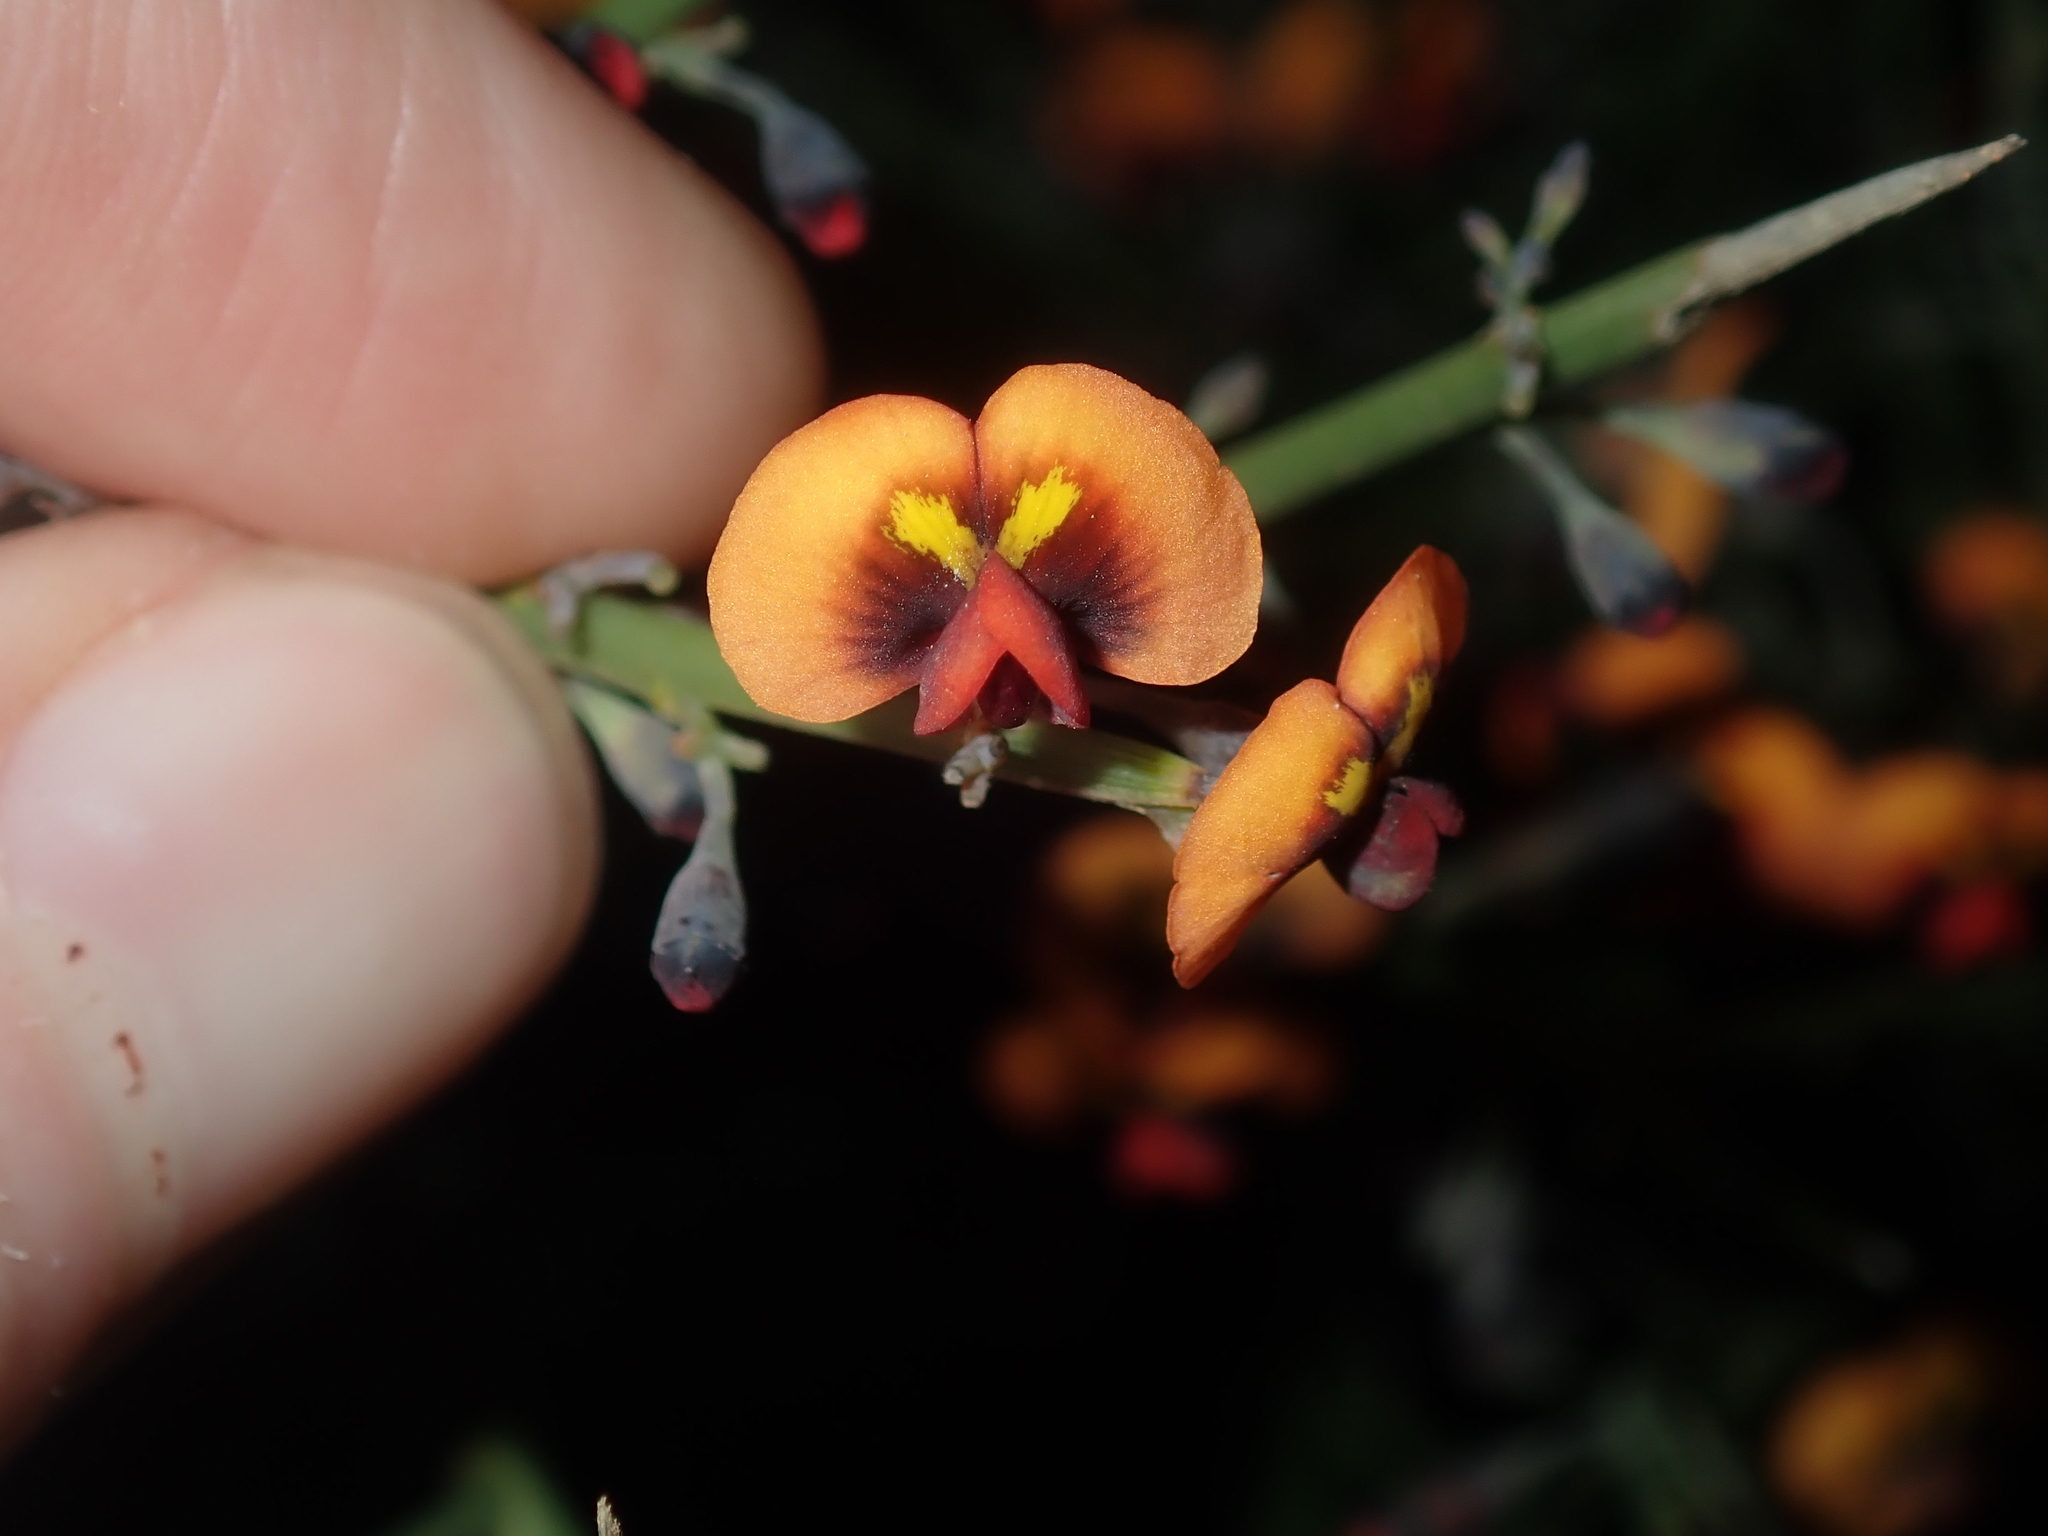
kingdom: Plantae
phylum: Tracheophyta
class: Magnoliopsida
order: Fabales
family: Fabaceae
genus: Daviesia
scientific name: Daviesia divaricata
